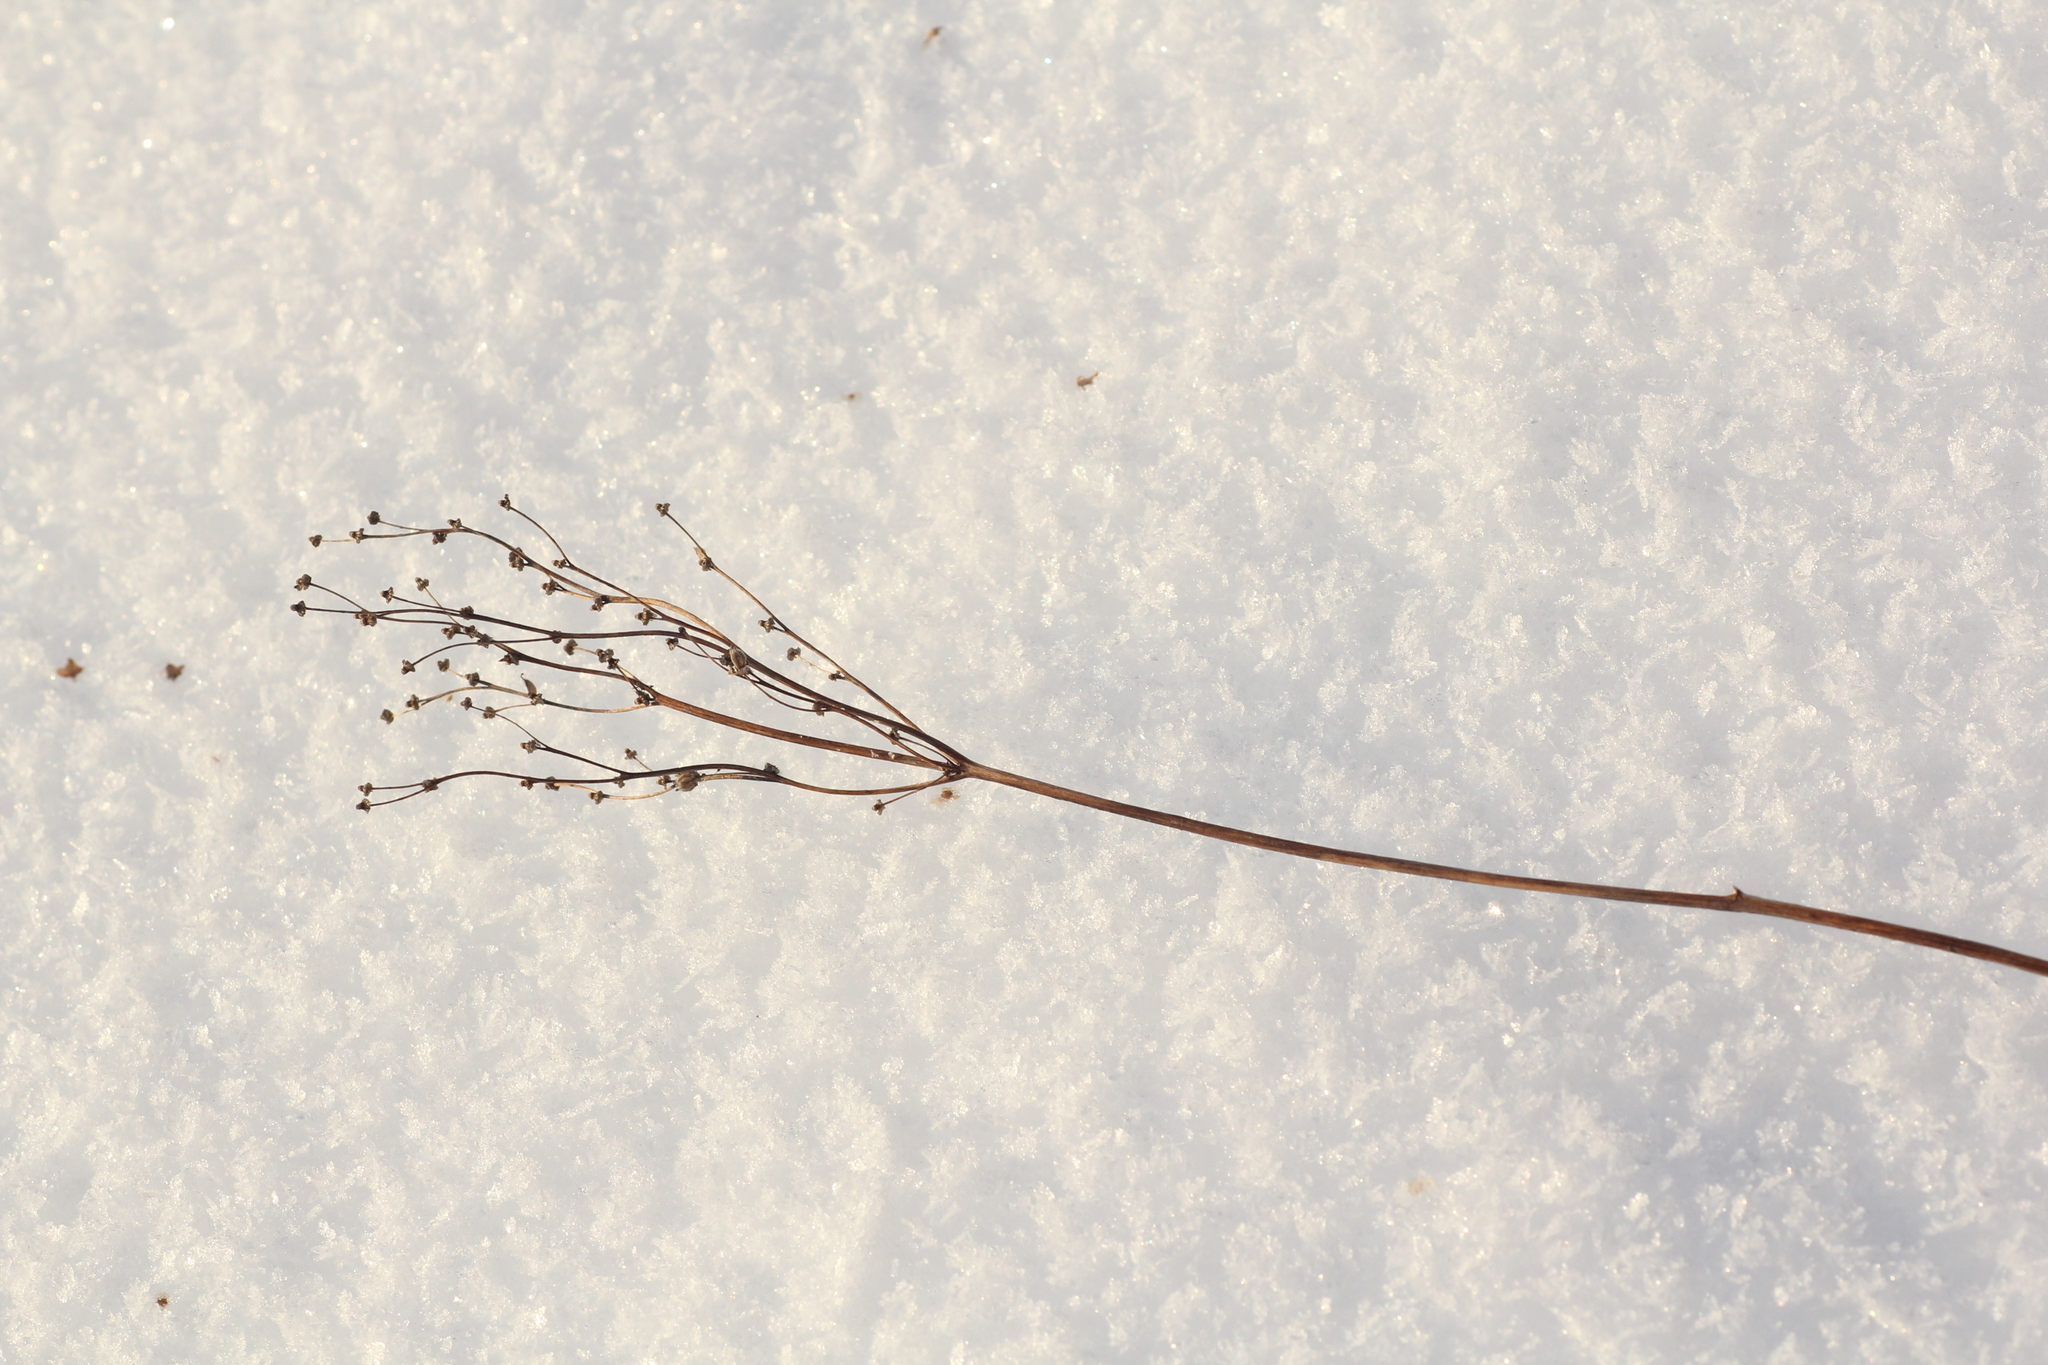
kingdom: Plantae
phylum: Tracheophyta
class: Magnoliopsida
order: Rosales
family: Rosaceae
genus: Filipendula
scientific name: Filipendula vulgaris
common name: Dropwort
